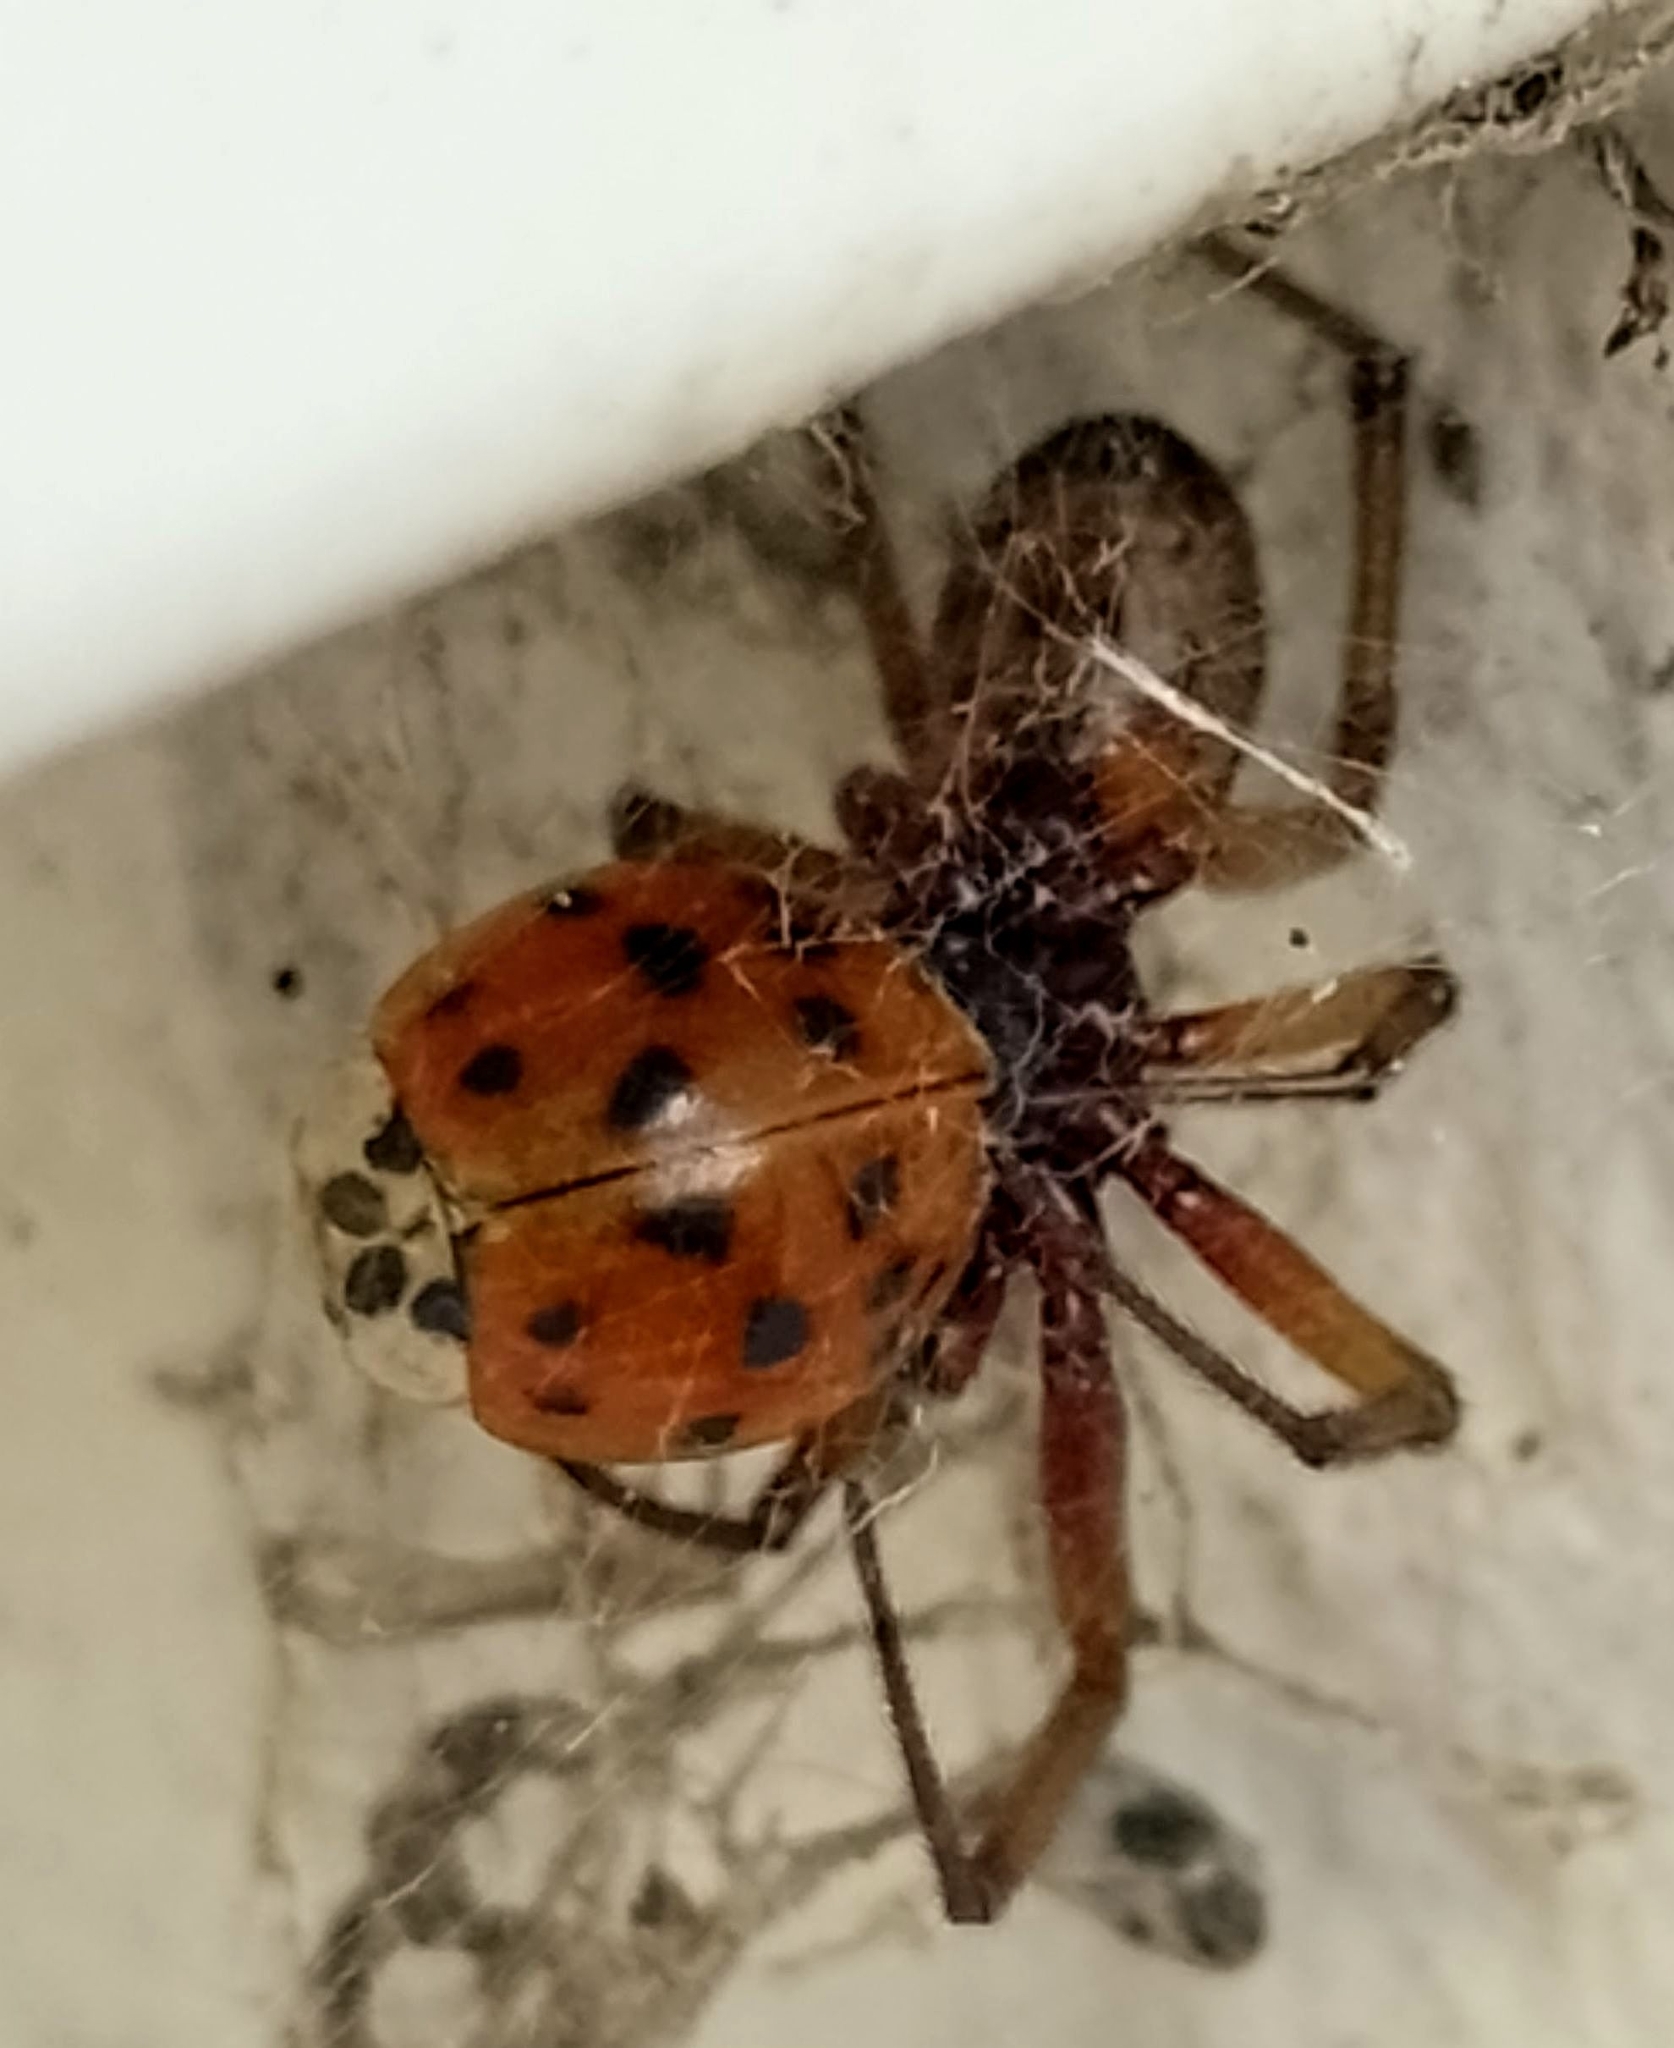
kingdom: Animalia
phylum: Arthropoda
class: Arachnida
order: Araneae
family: Theridiidae
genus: Steatoda
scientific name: Steatoda nobilis
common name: Cobweb weaver
